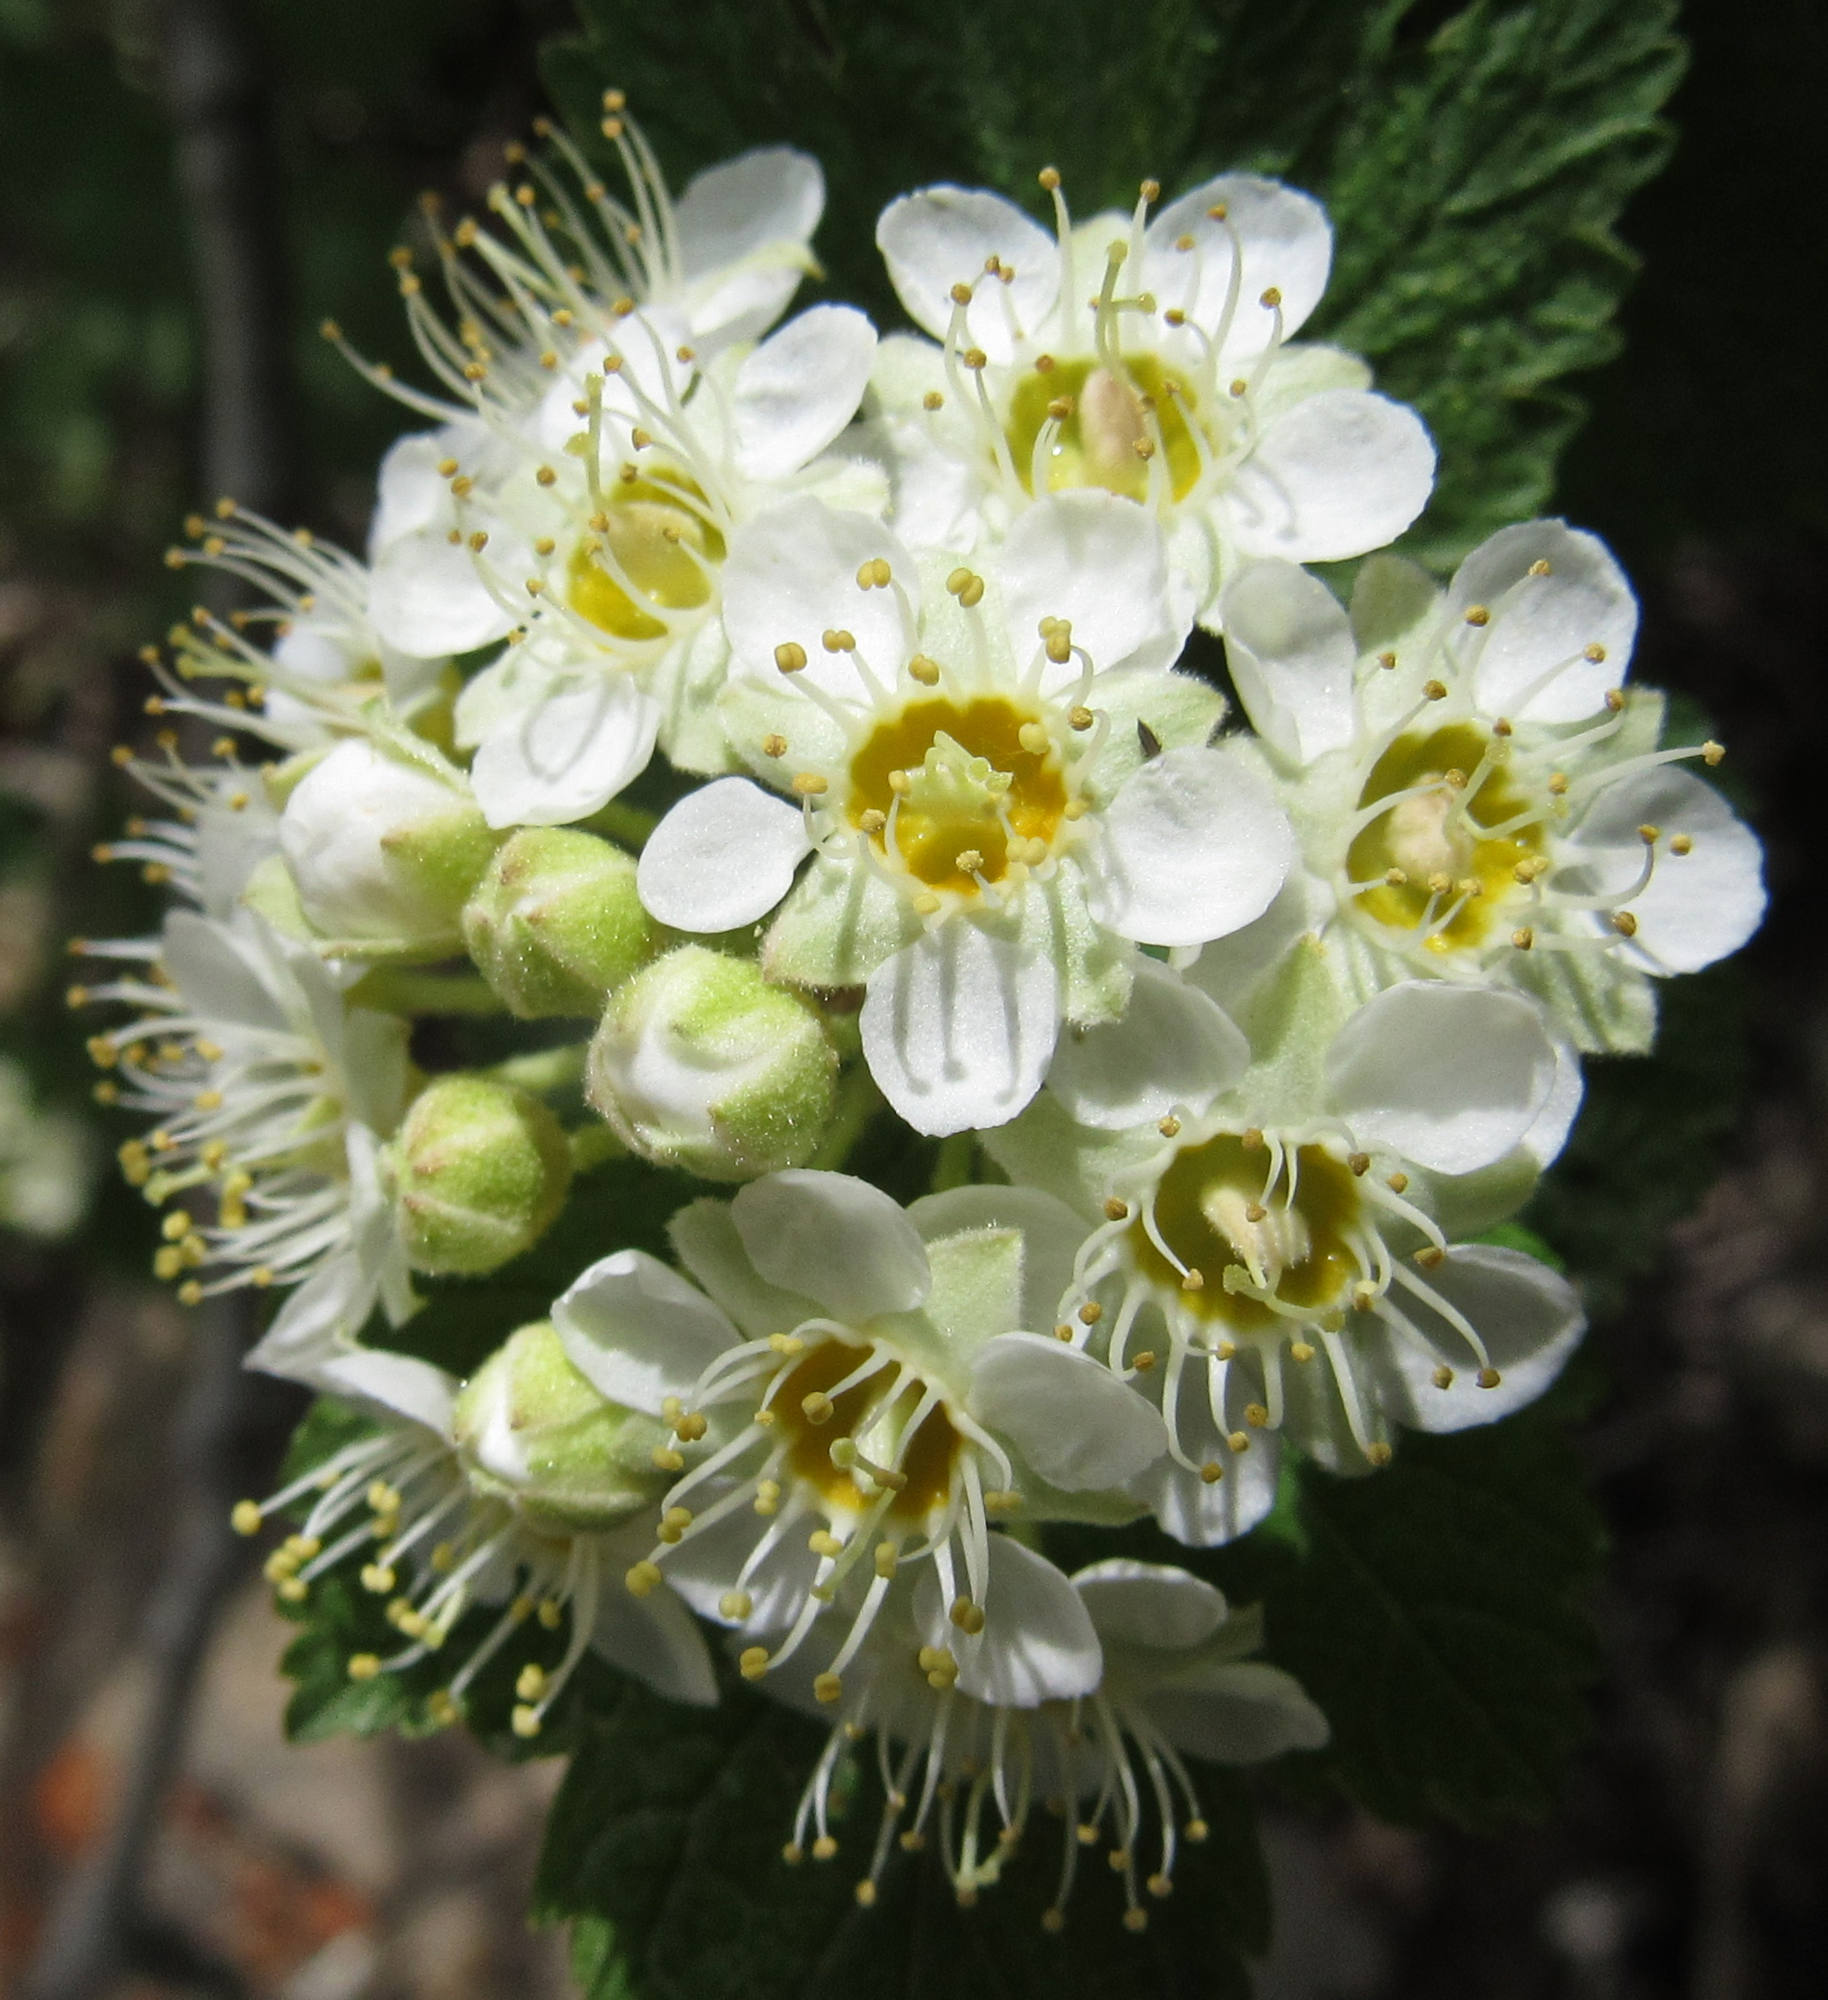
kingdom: Plantae
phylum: Tracheophyta
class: Magnoliopsida
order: Rosales
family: Rosaceae
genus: Physocarpus
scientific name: Physocarpus malvaceus
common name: Mallow ninebark
